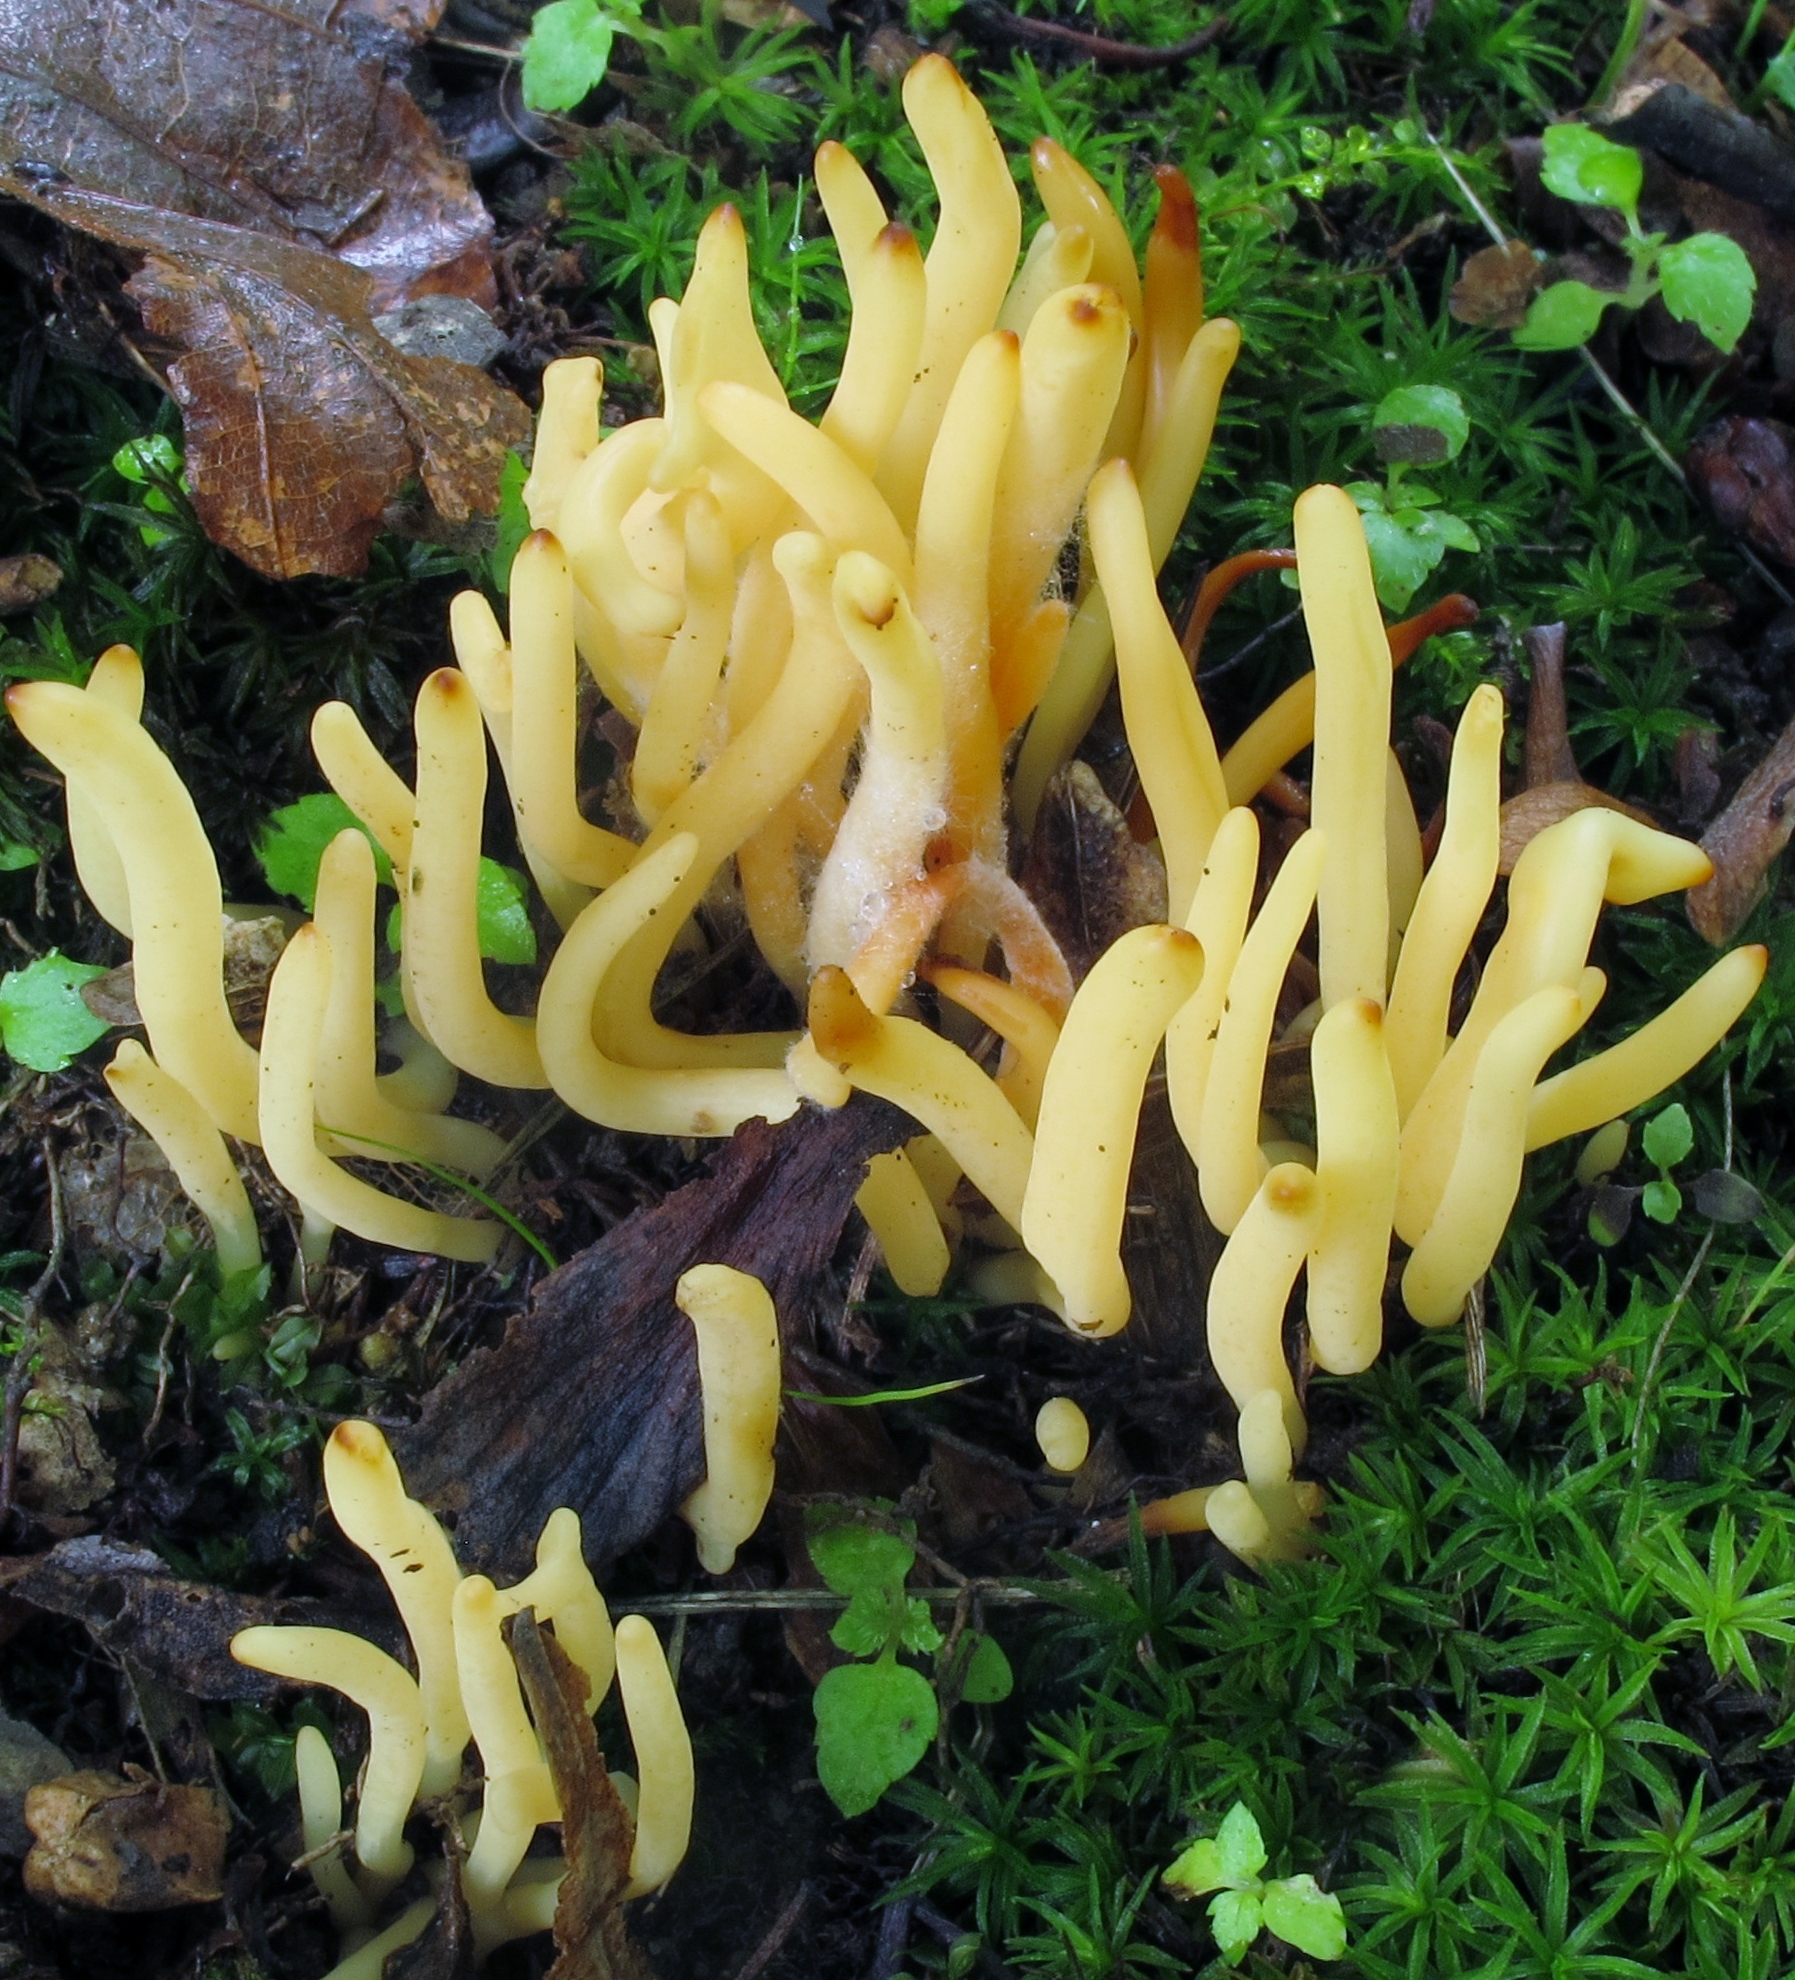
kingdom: Fungi
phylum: Basidiomycota
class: Agaricomycetes
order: Agaricales
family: Clavariaceae
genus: Clavulinopsis
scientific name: Clavulinopsis fusiformis
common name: Golden spindles
